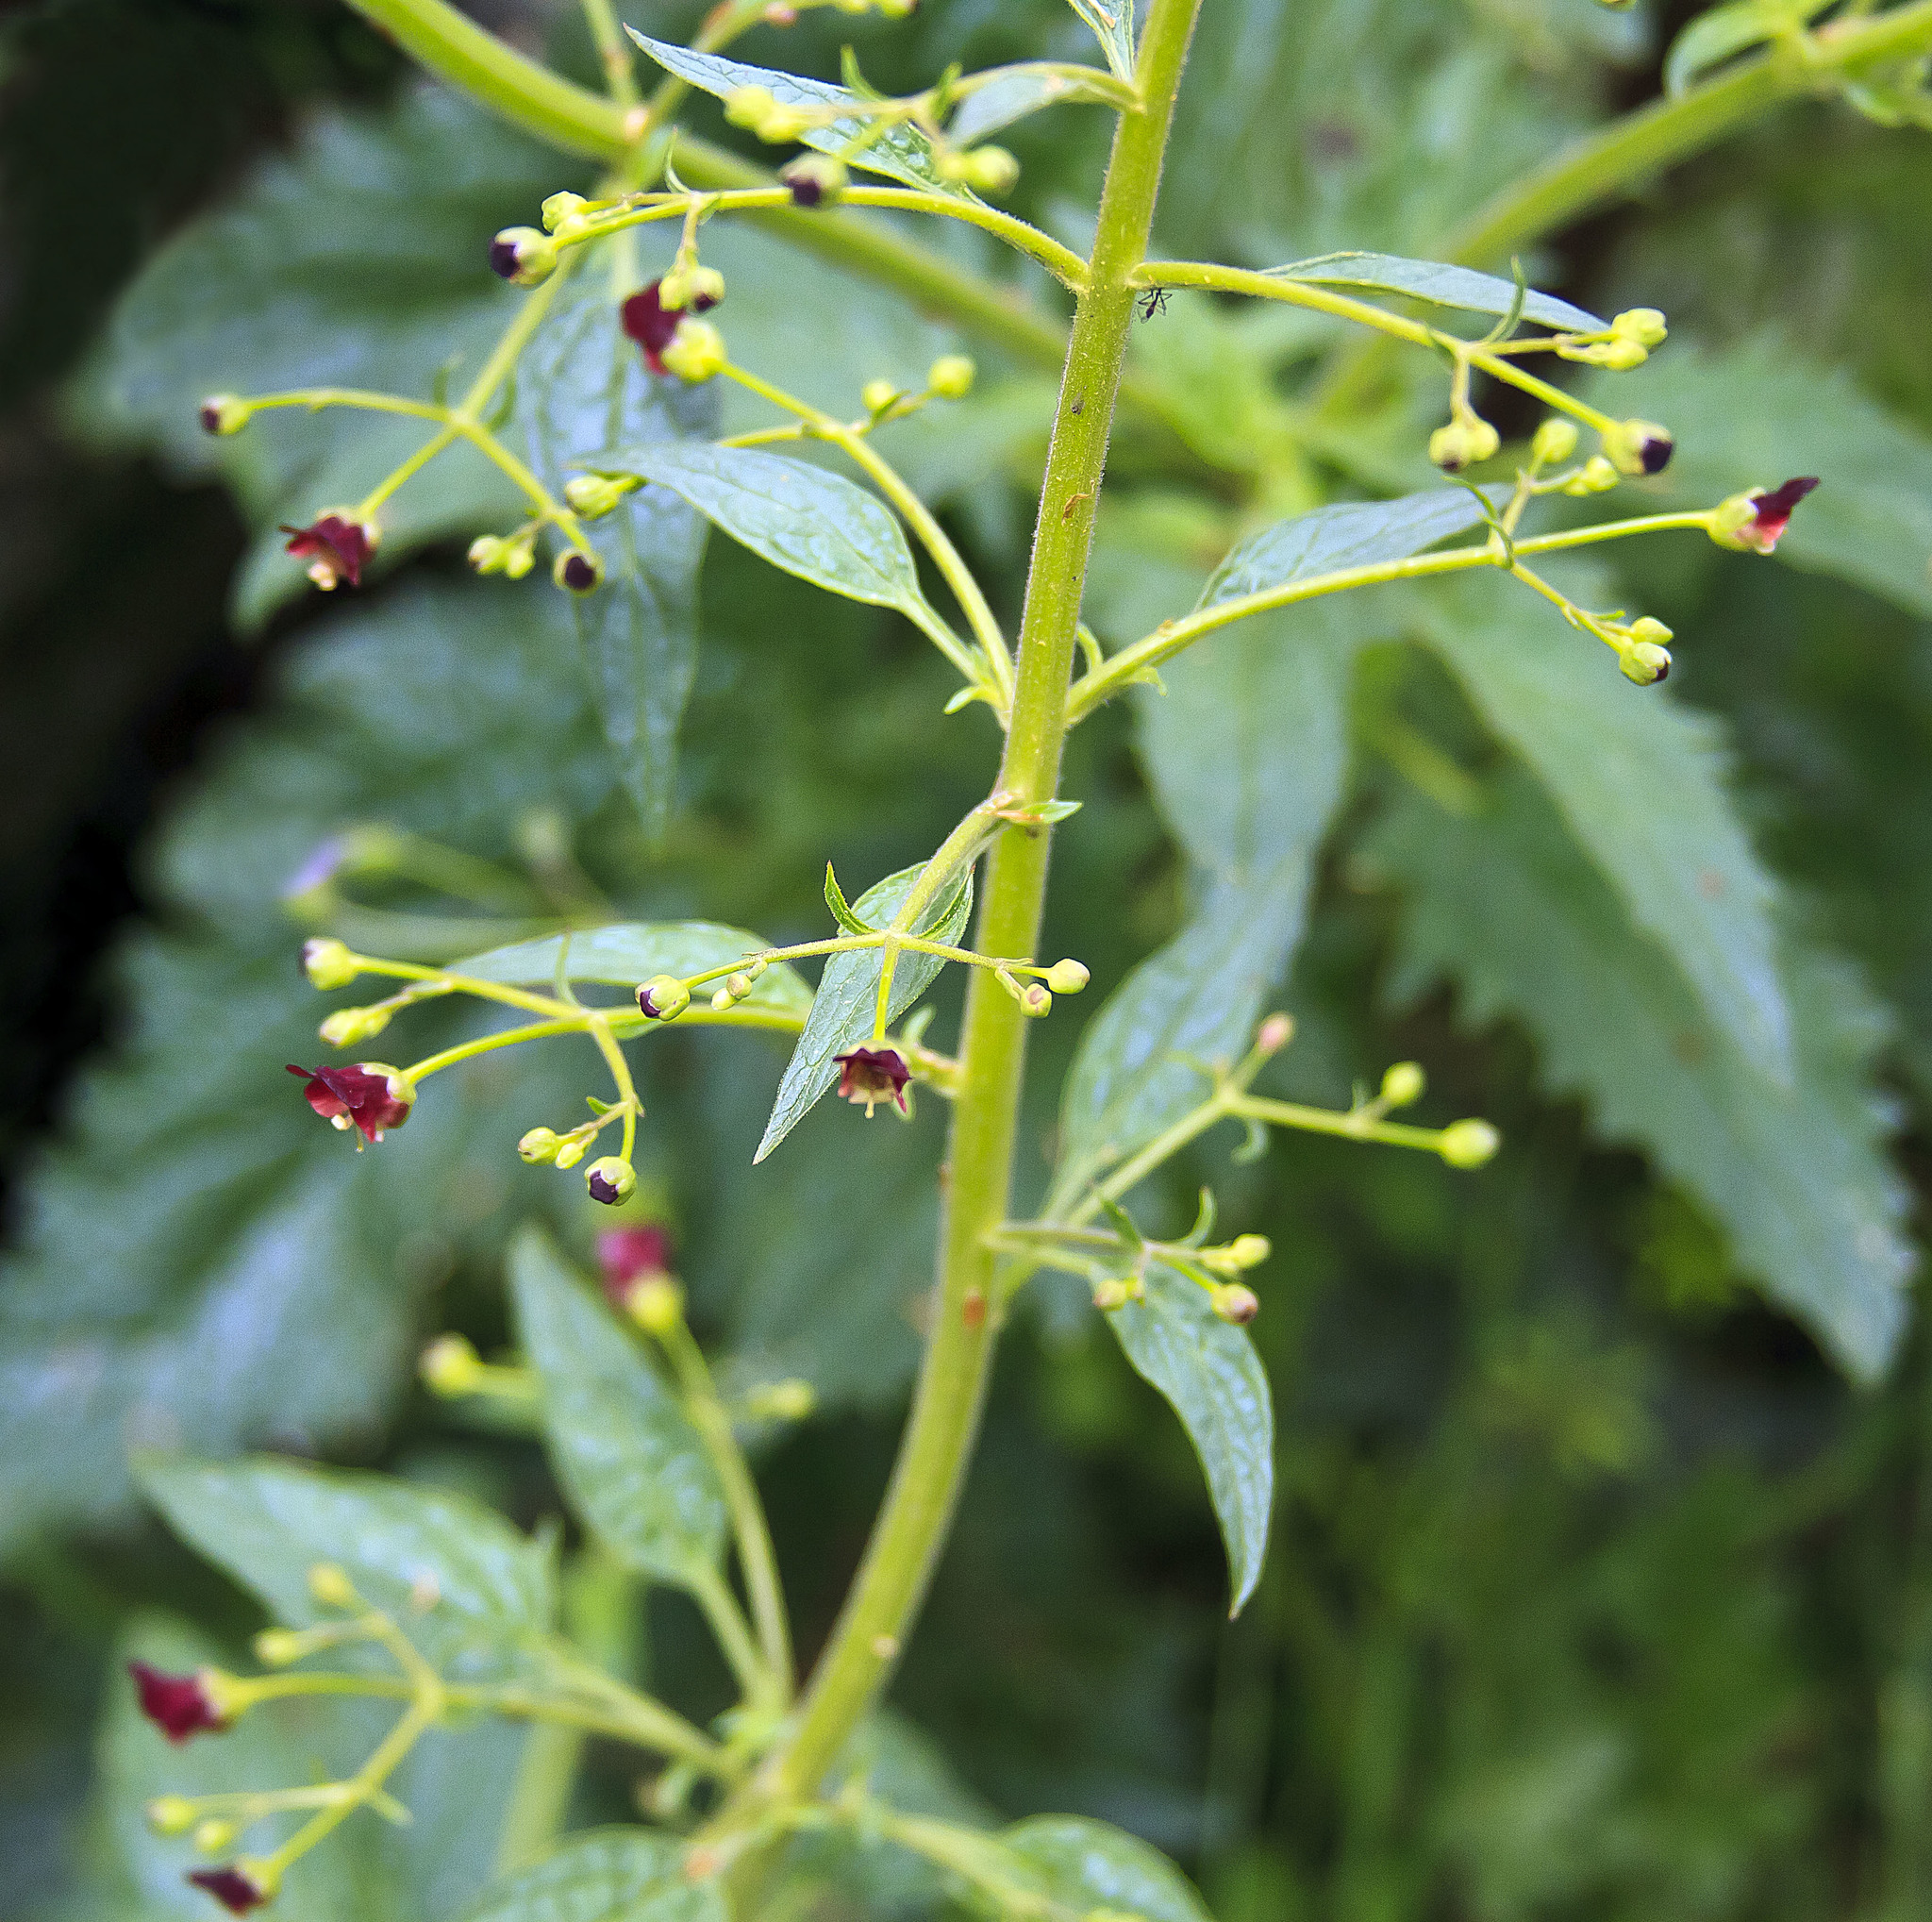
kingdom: Plantae
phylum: Tracheophyta
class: Magnoliopsida
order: Lamiales
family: Scrophulariaceae
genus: Scrophularia
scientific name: Scrophularia californica
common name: California figwort
